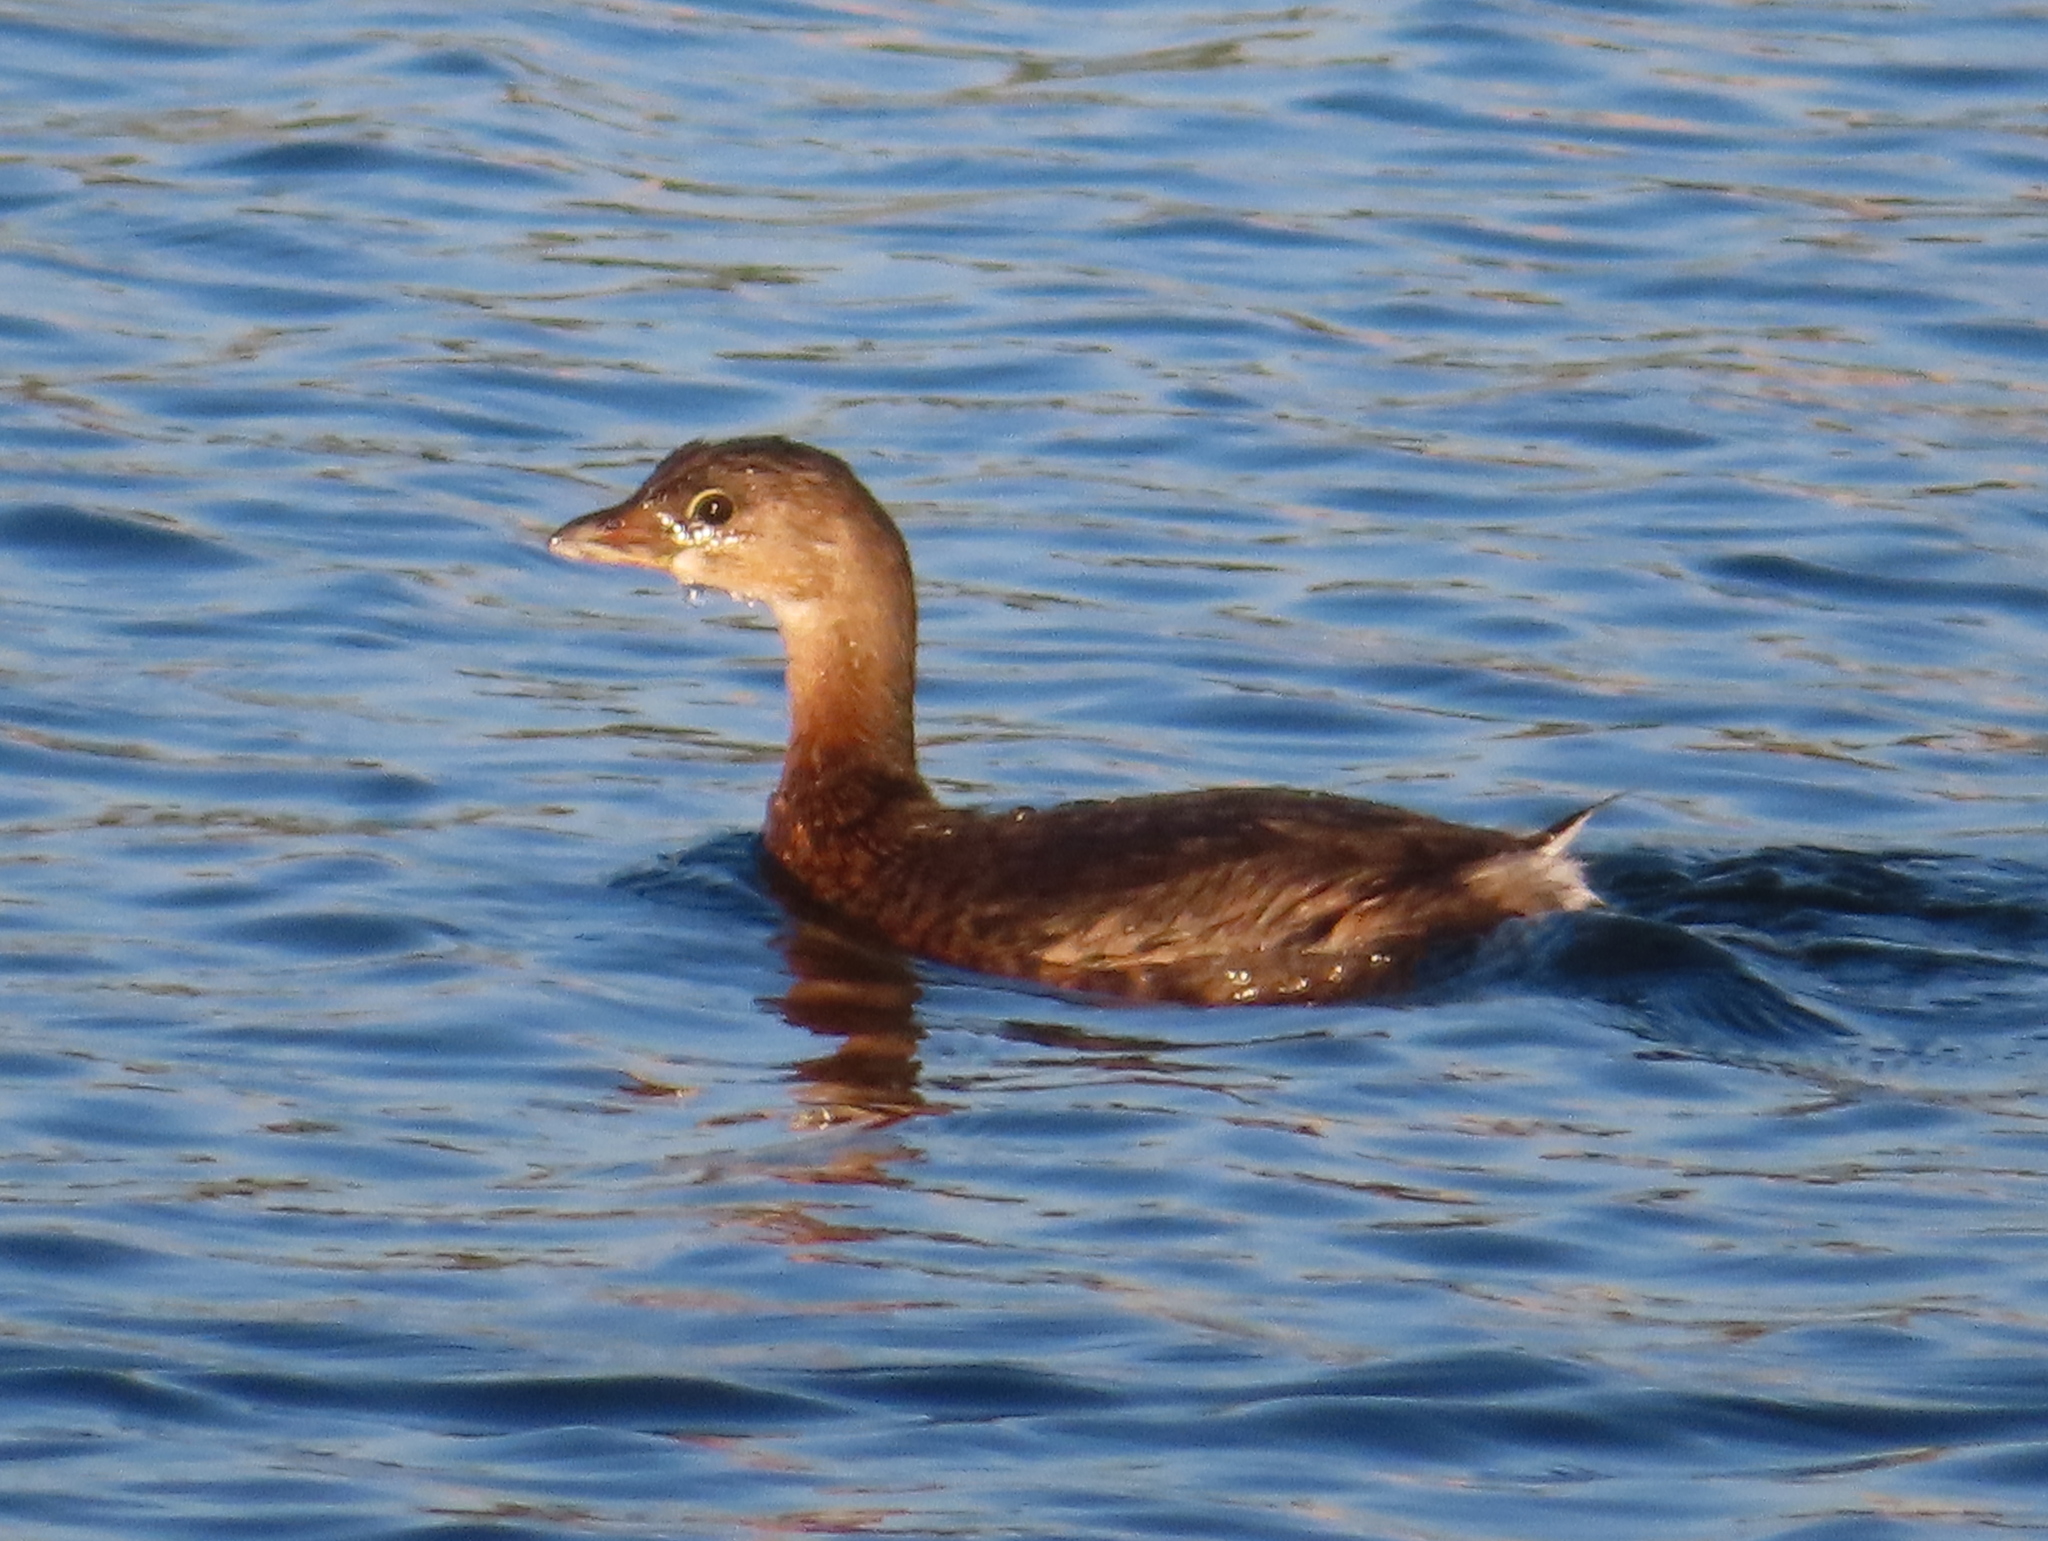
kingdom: Animalia
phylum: Chordata
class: Aves
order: Podicipediformes
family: Podicipedidae
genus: Podilymbus
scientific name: Podilymbus podiceps
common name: Pied-billed grebe
